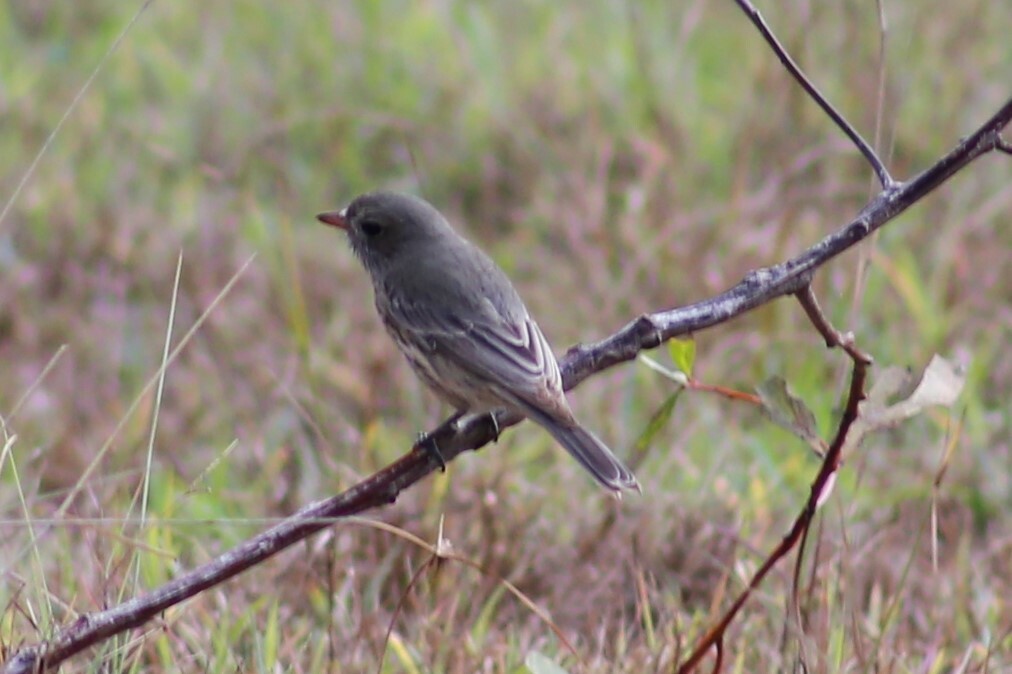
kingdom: Animalia
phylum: Chordata
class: Aves
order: Passeriformes
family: Pachycephalidae
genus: Pachycephala
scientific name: Pachycephala rufiventris
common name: Rufous whistler
